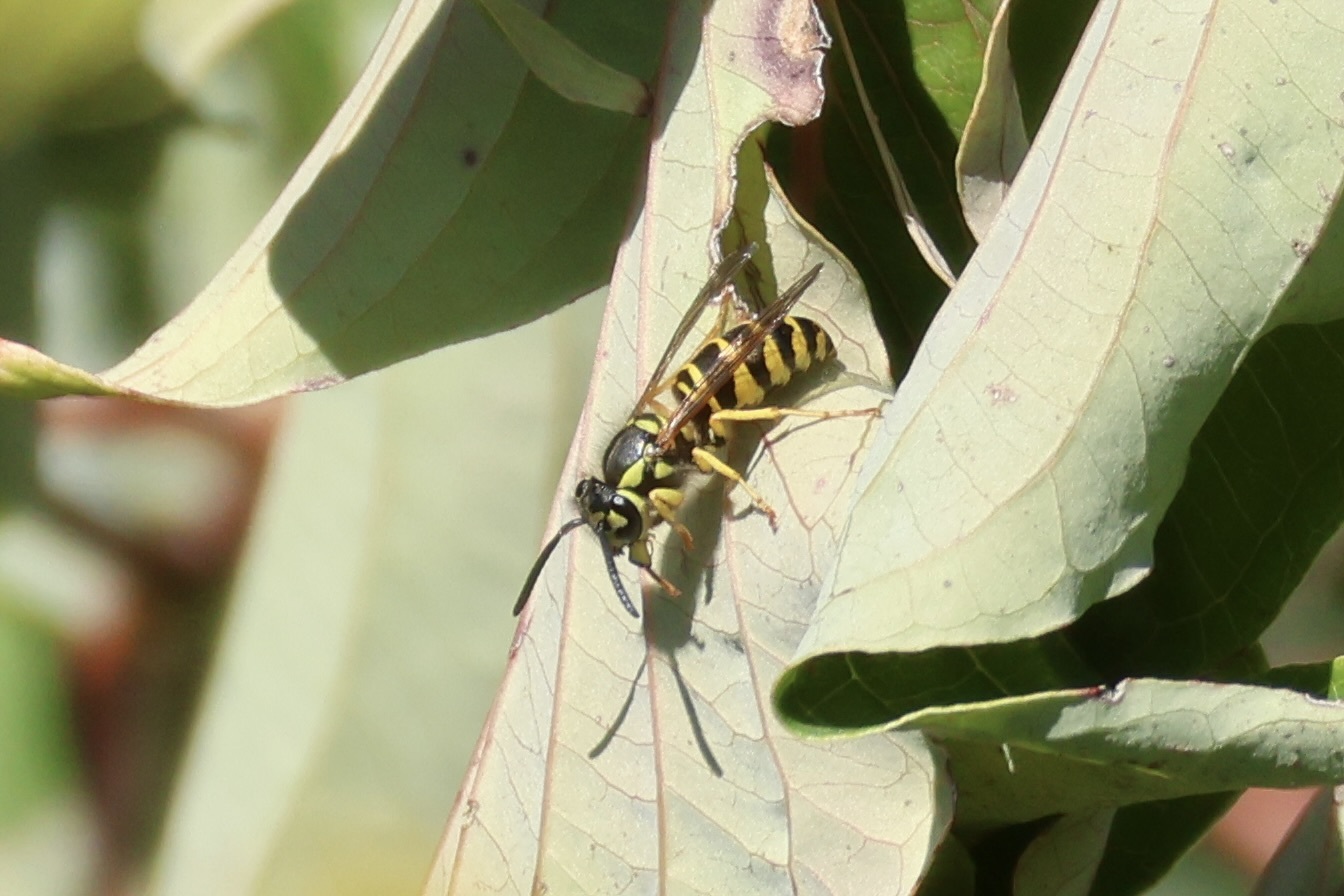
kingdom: Animalia
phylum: Arthropoda
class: Insecta
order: Hymenoptera
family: Vespidae
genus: Vespula
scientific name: Vespula maculifrons
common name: Eastern yellowjacket
